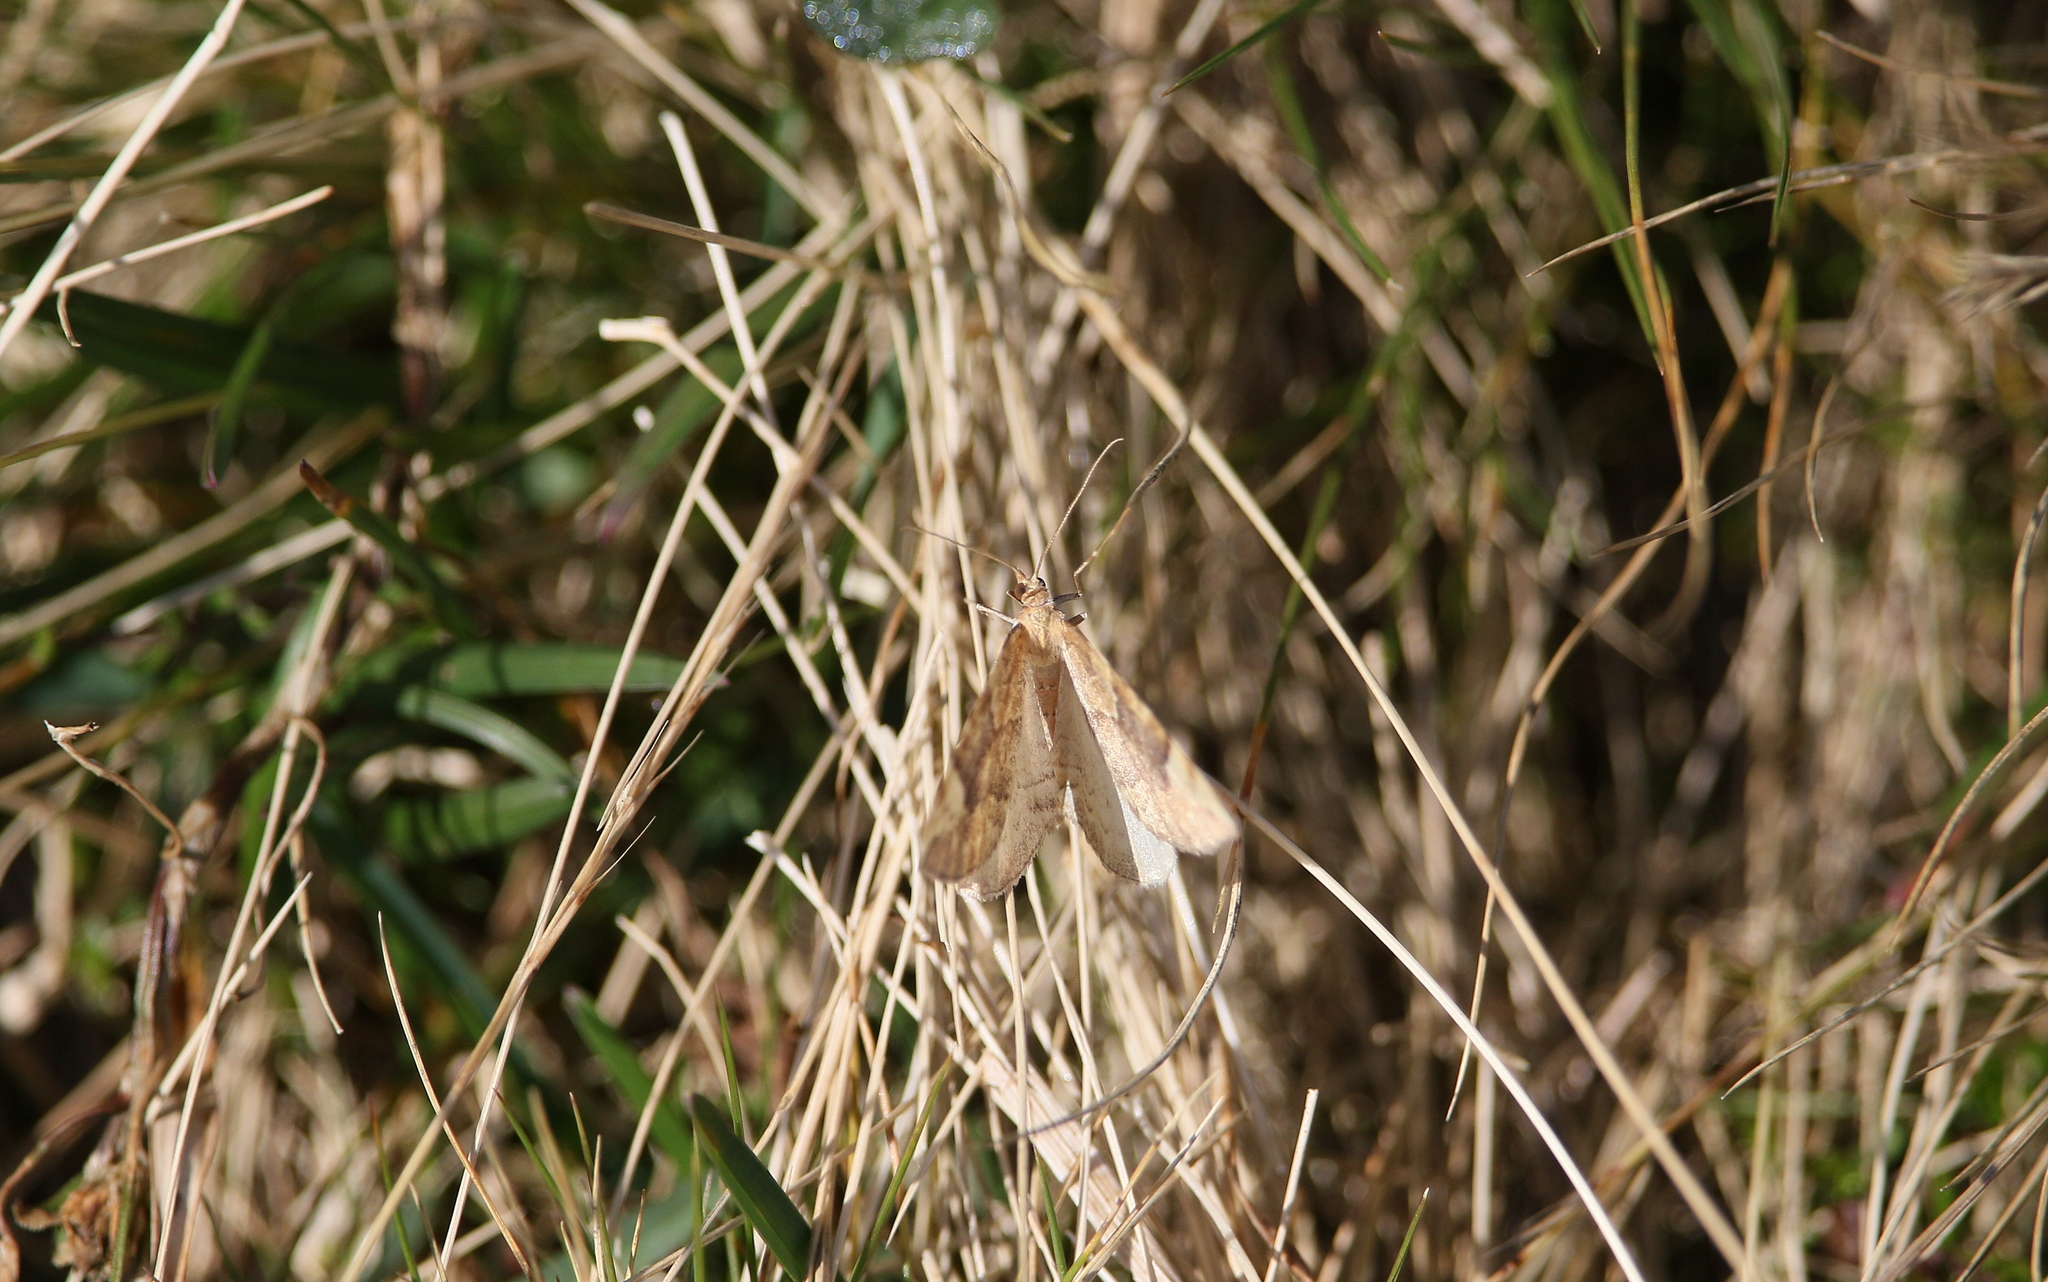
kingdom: Animalia
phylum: Arthropoda
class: Insecta
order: Lepidoptera
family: Geometridae
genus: Eulithis
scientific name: Eulithis populata
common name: Northern spinach
